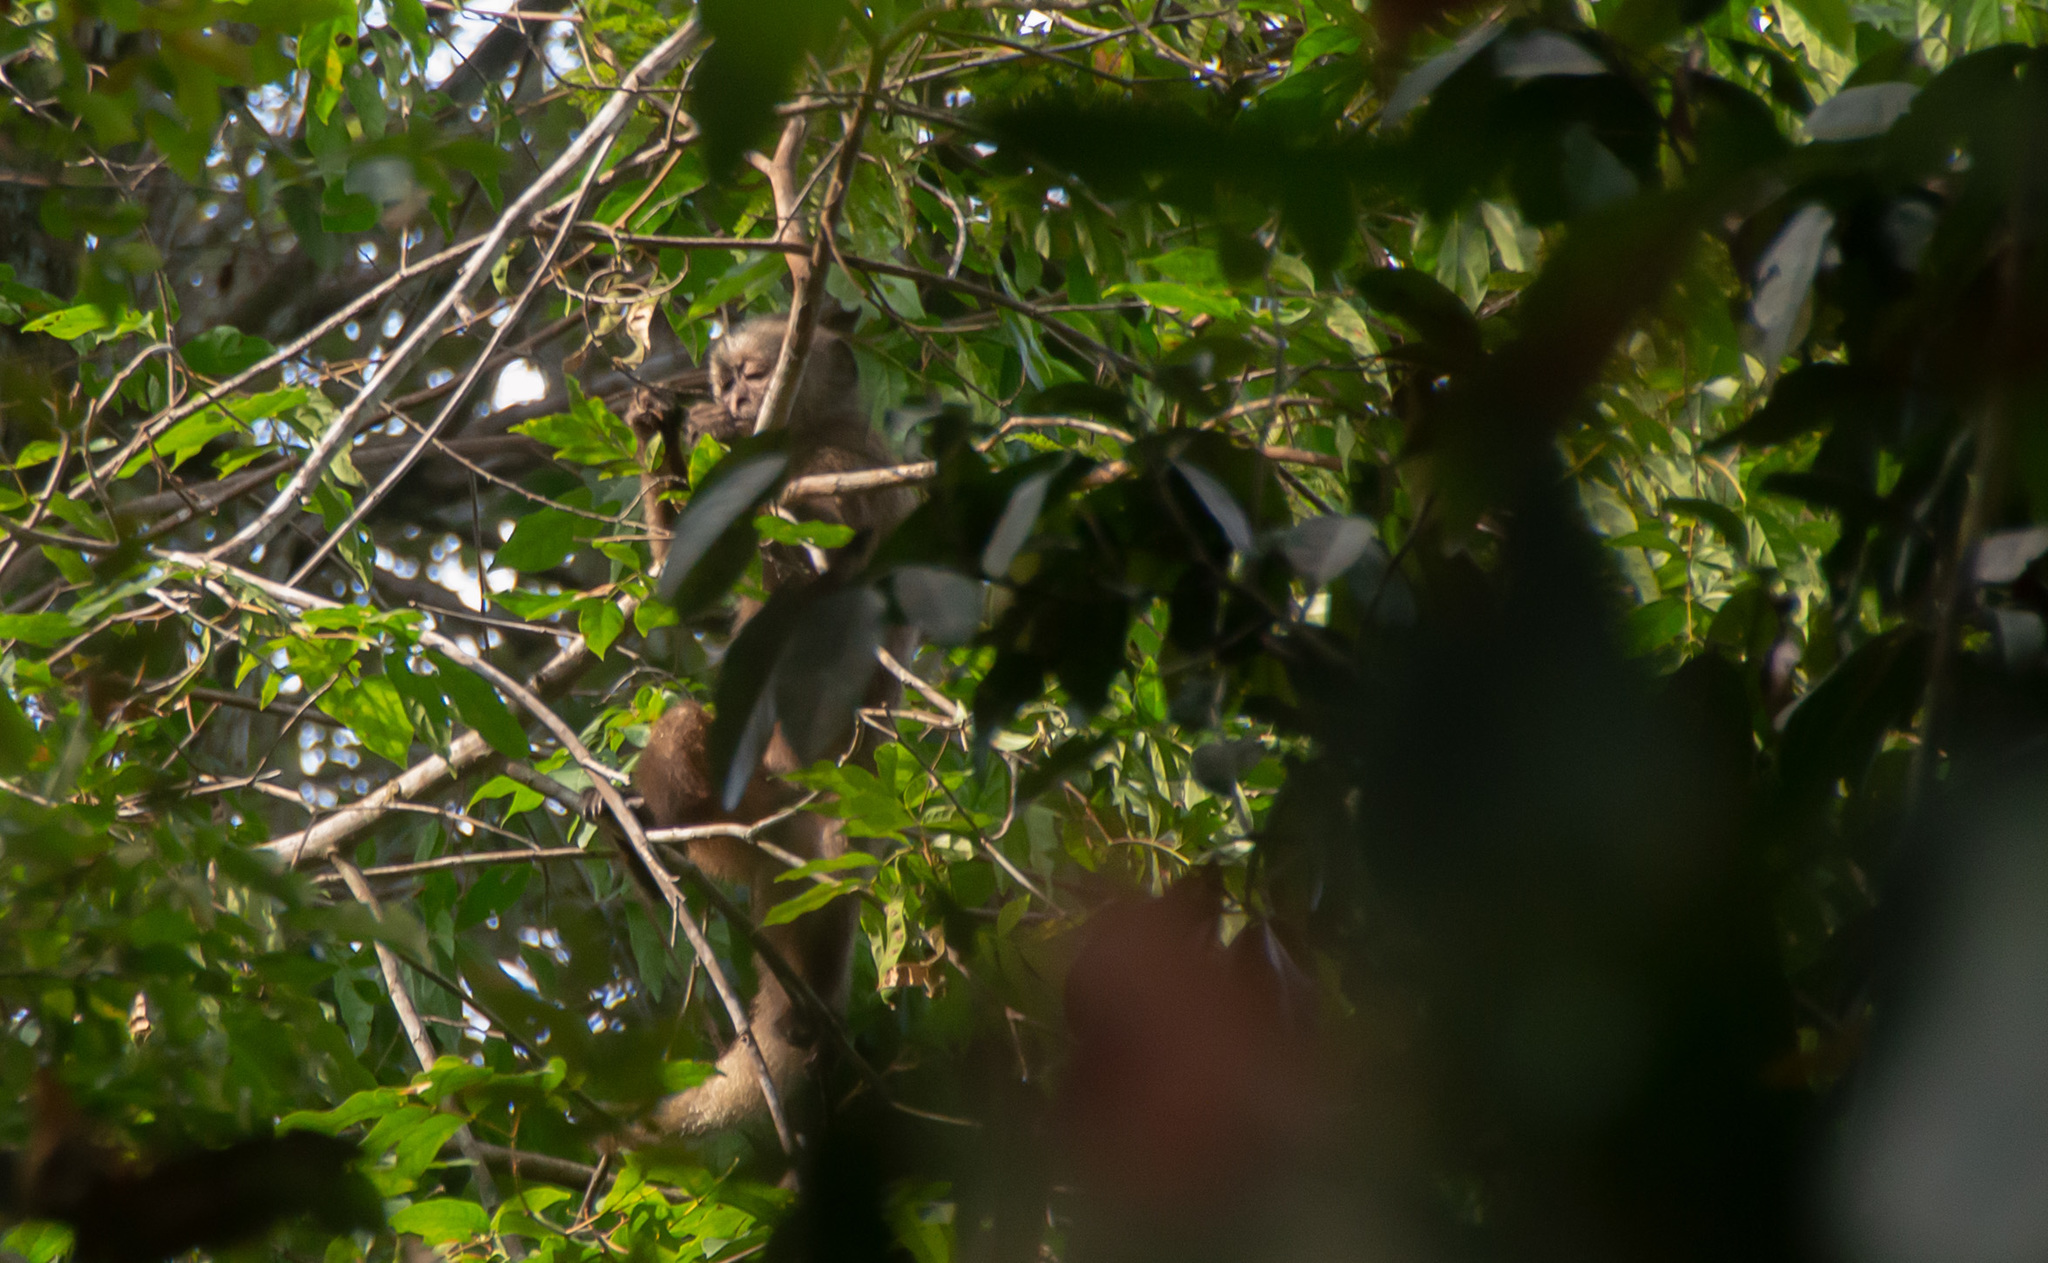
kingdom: Animalia
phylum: Chordata
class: Mammalia
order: Primates
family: Cebidae
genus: Cebus
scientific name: Cebus kaapori
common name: Kaapori capuchin
